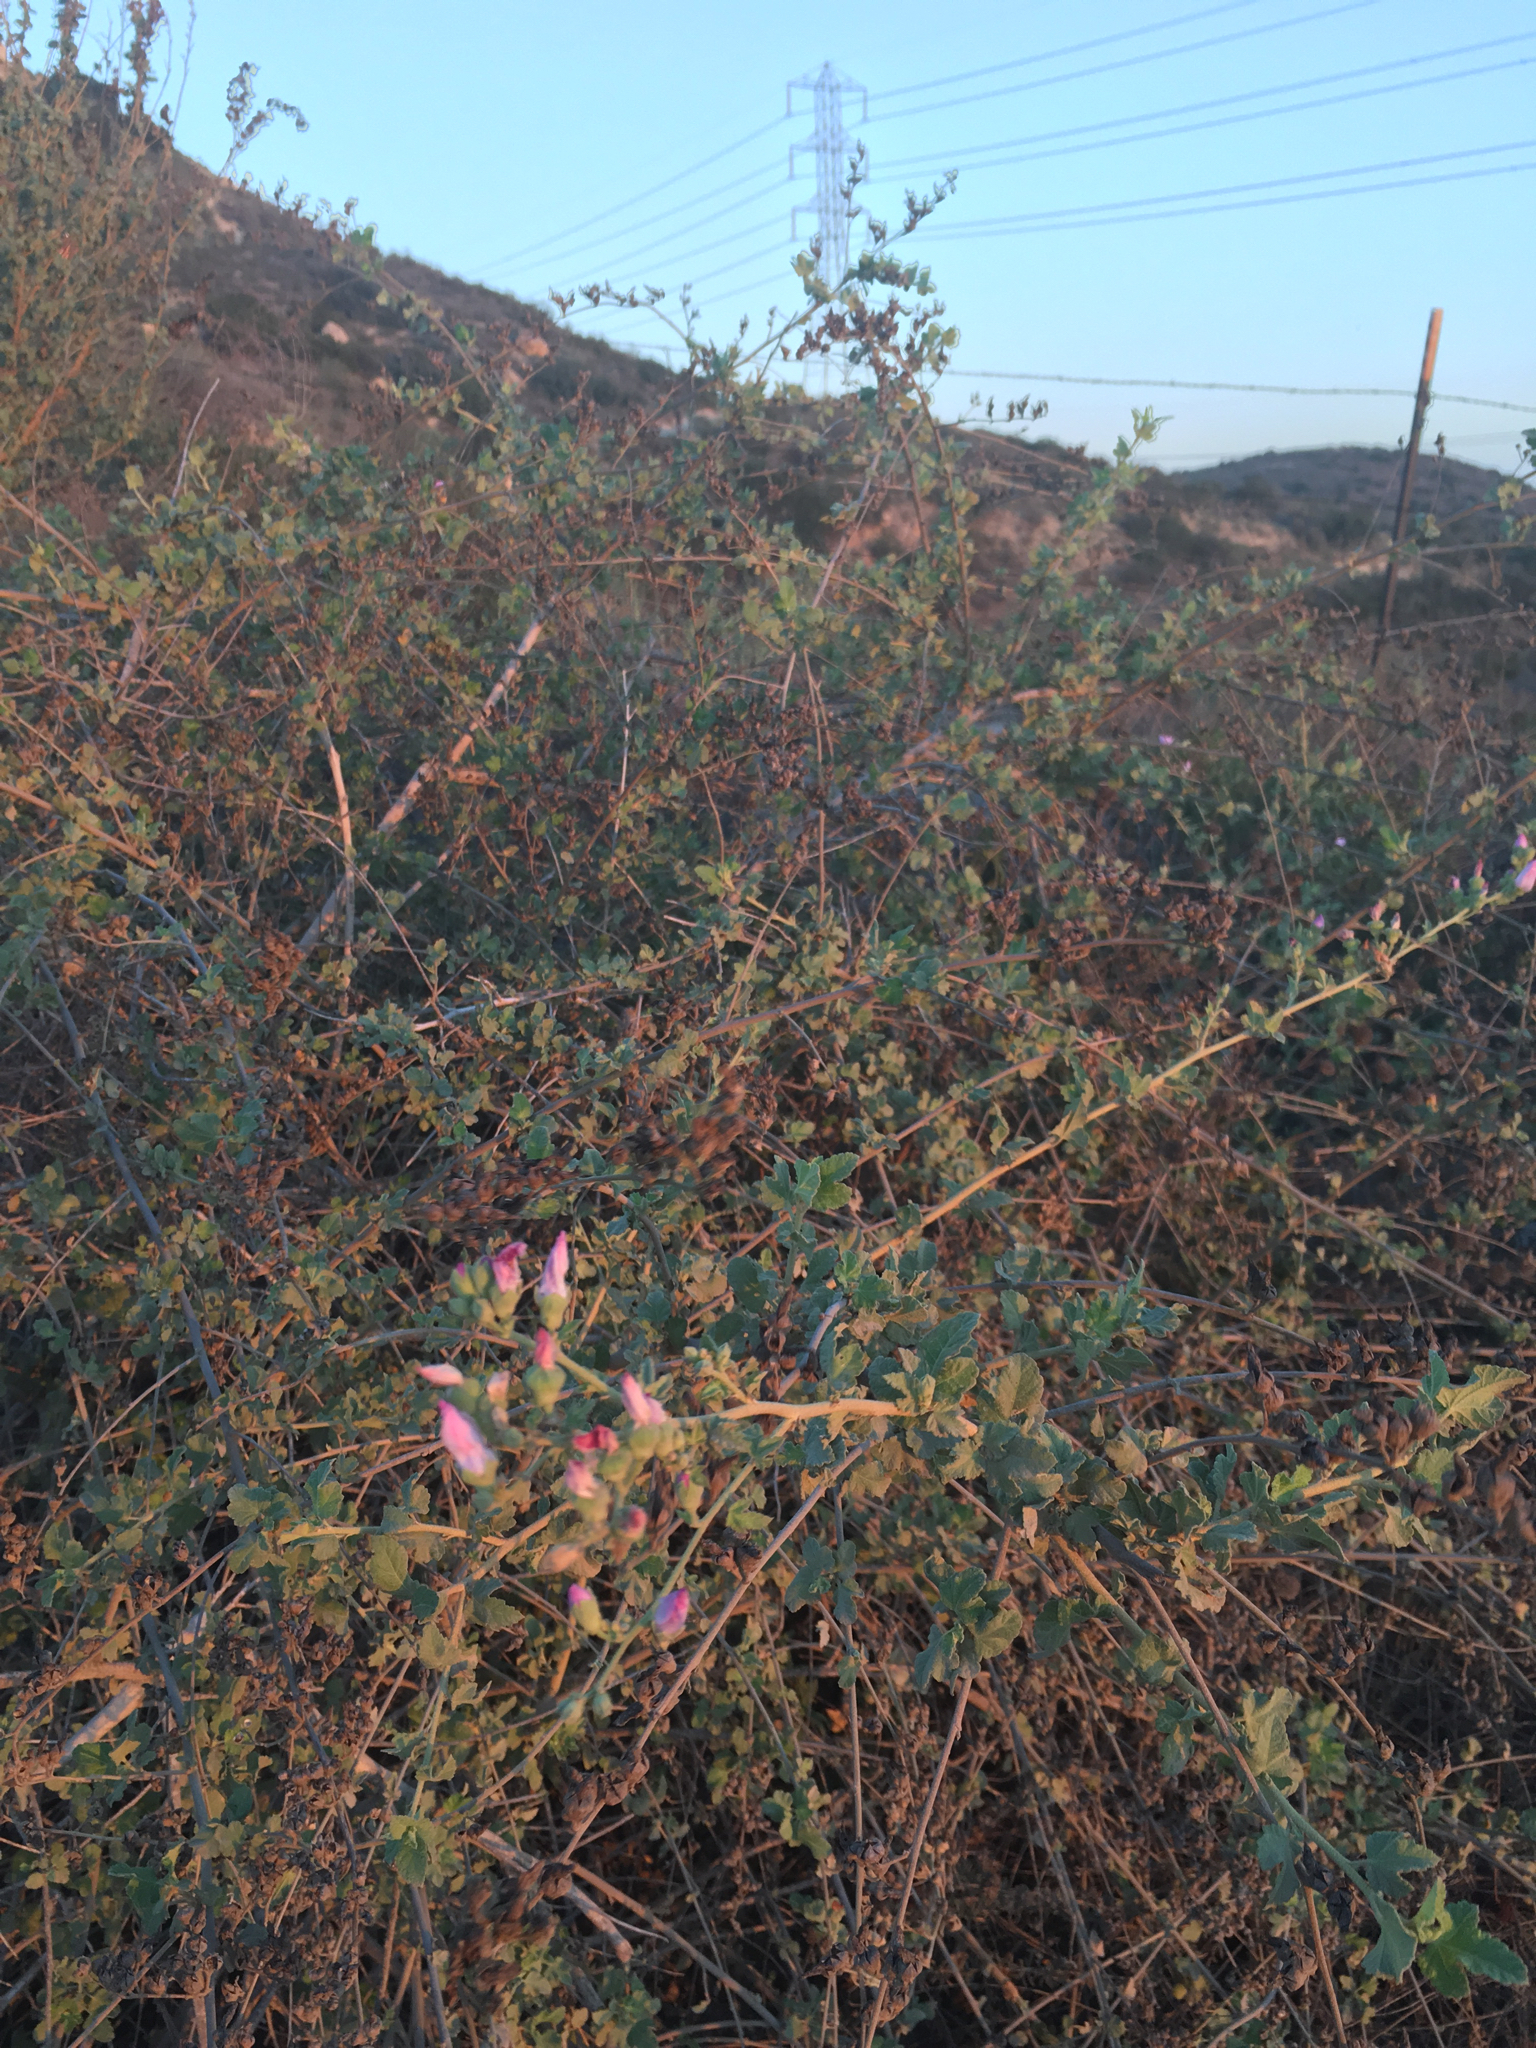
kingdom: Plantae
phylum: Tracheophyta
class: Magnoliopsida
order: Malvales
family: Malvaceae
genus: Malacothamnus
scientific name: Malacothamnus fasciculatus
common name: Sant cruz island bush-mallow
